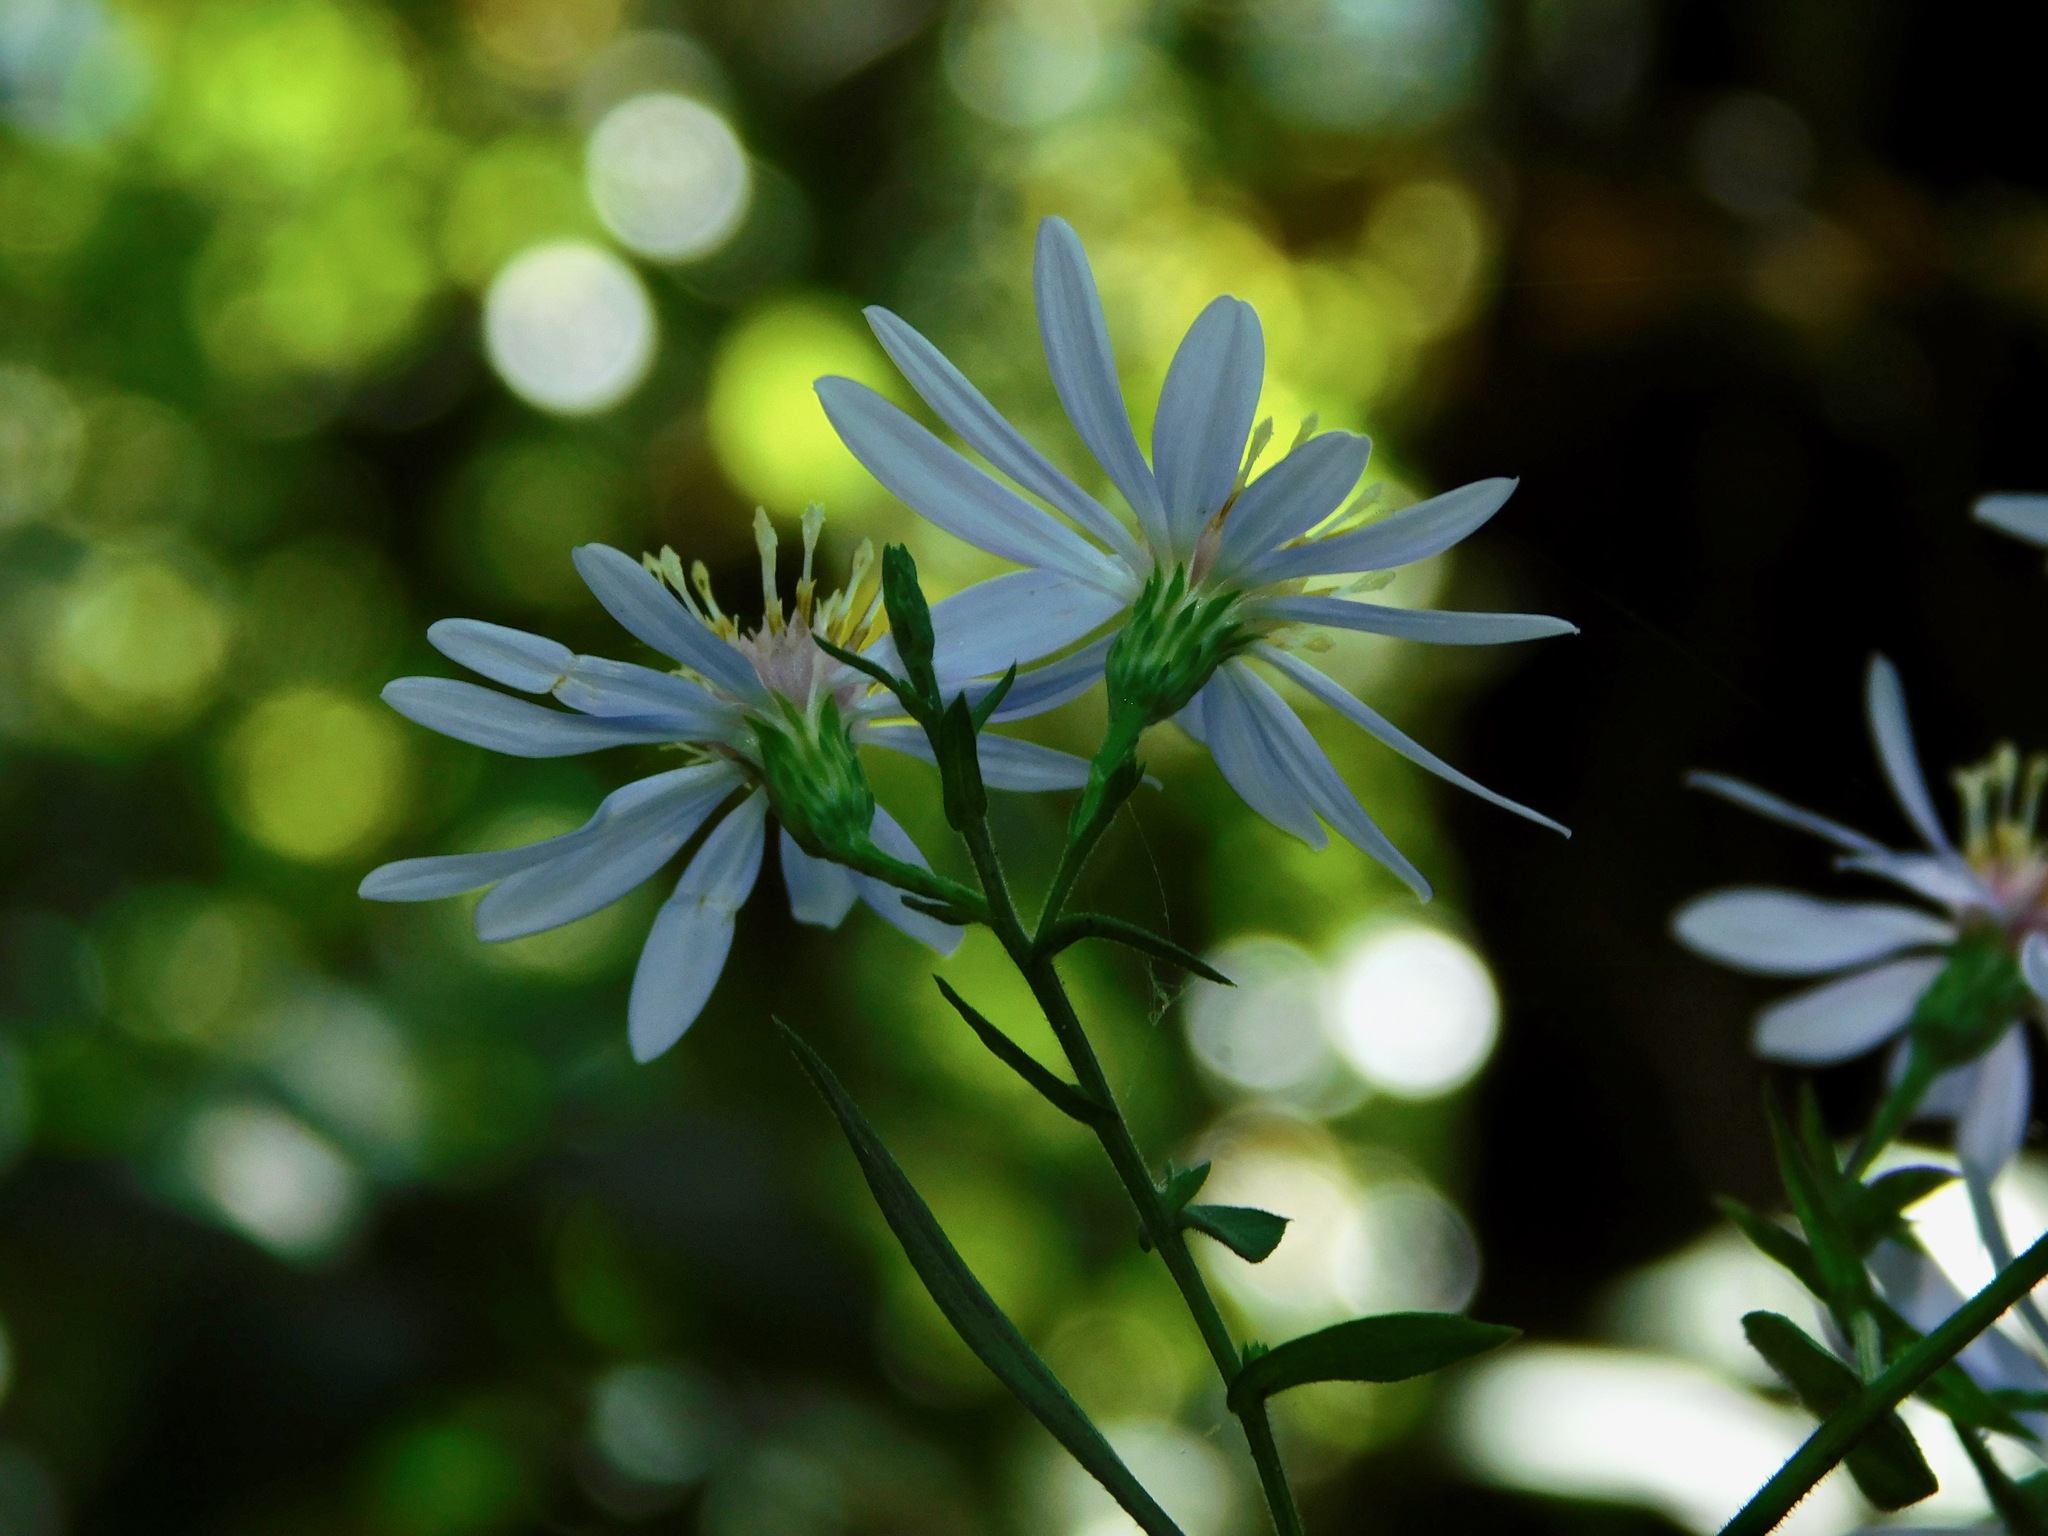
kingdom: Plantae
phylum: Tracheophyta
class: Magnoliopsida
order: Asterales
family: Asteraceae
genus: Symphyotrichum
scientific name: Symphyotrichum undulatum
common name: Clasping heart-leaf aster
